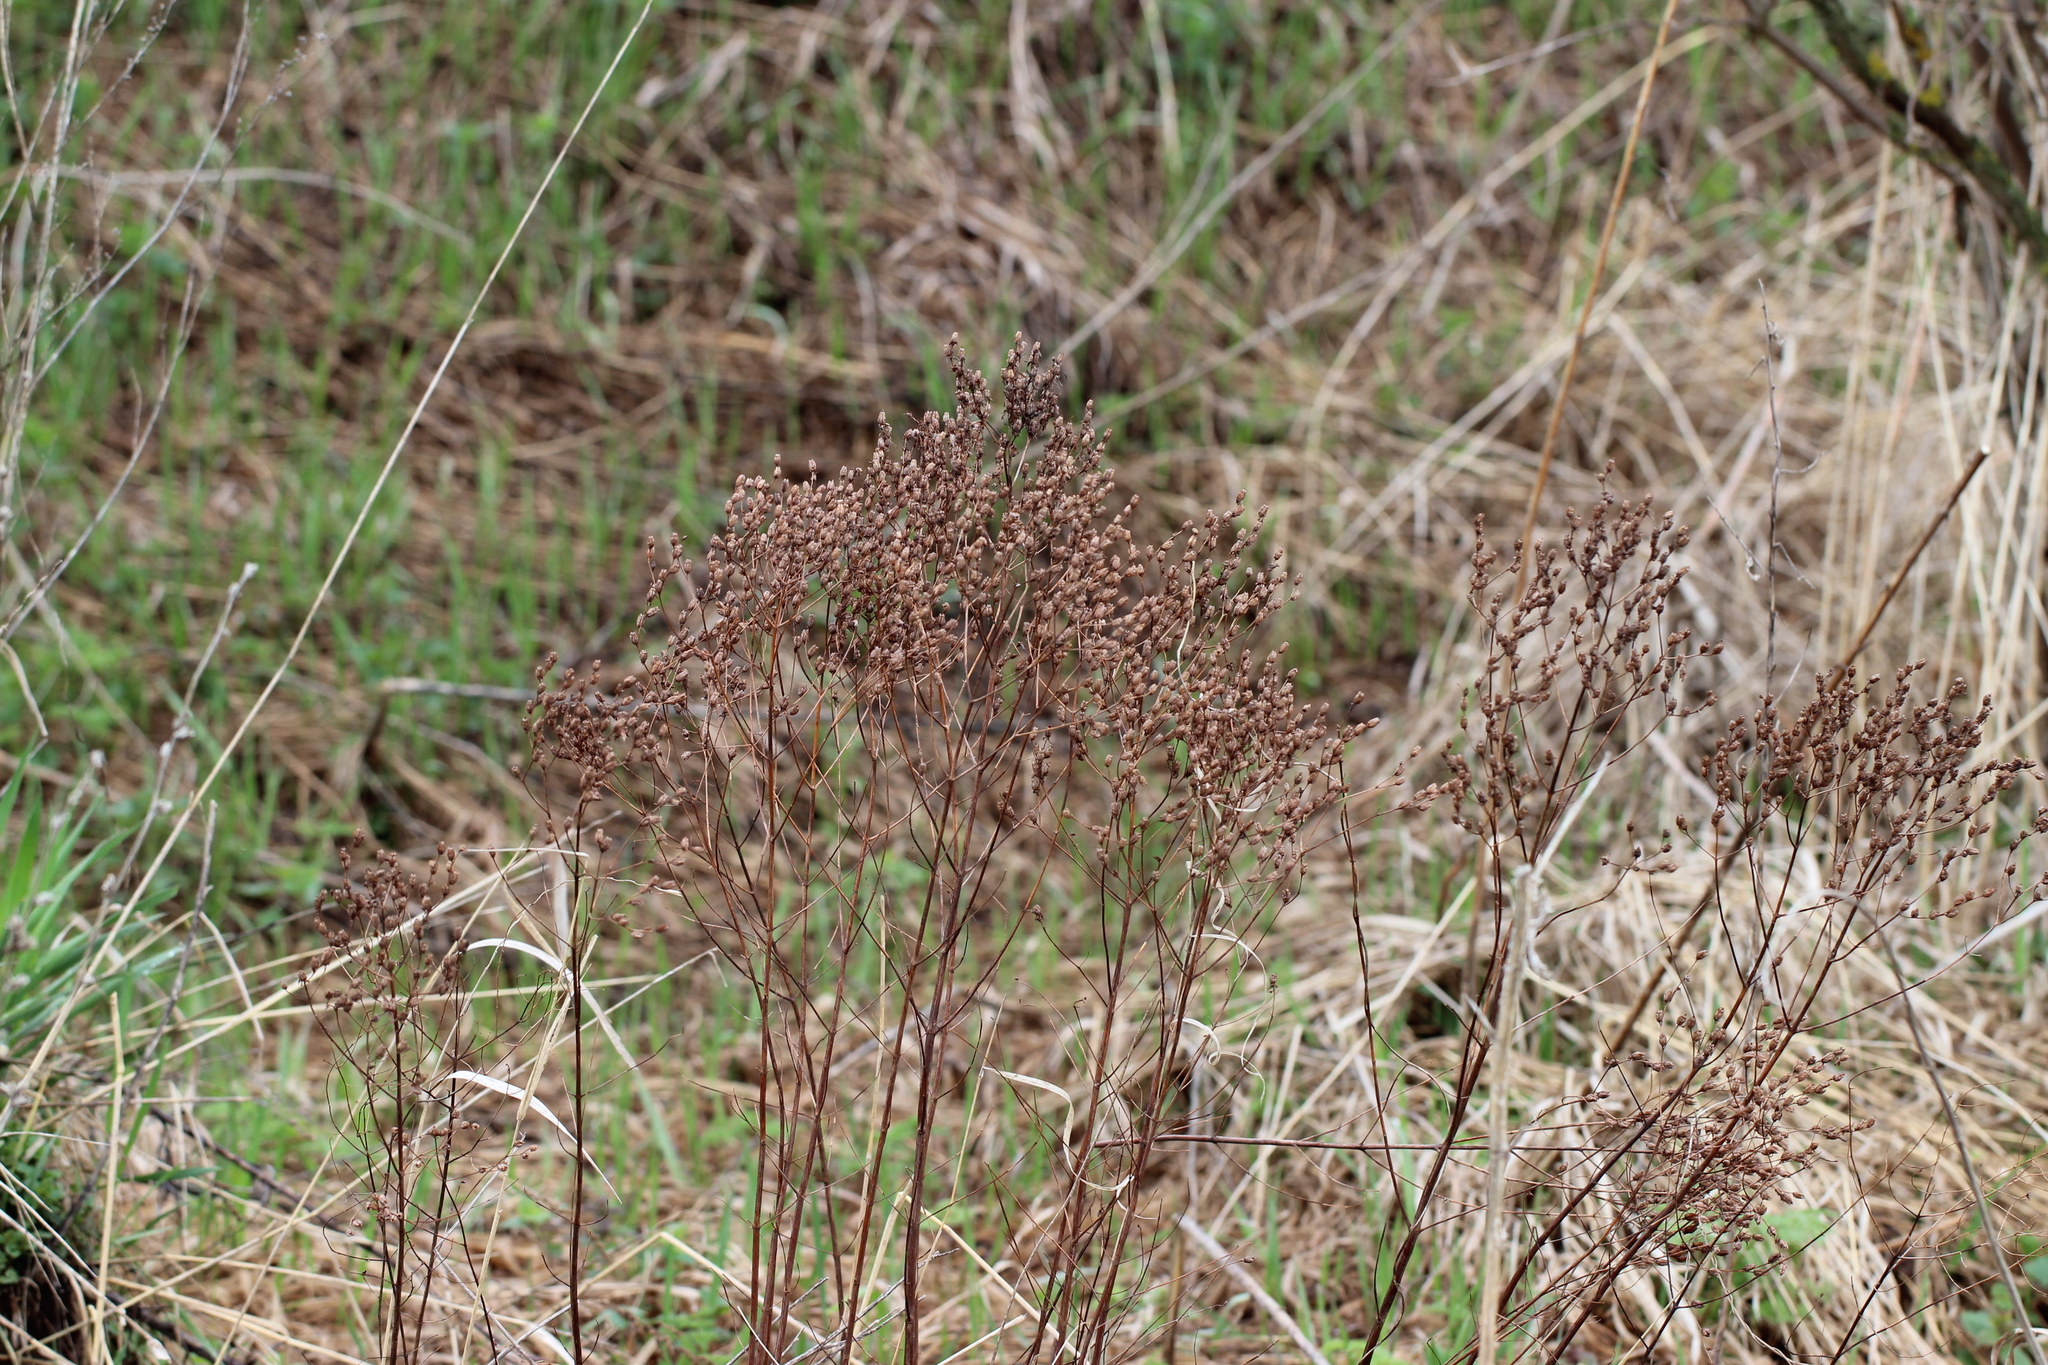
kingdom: Plantae
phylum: Tracheophyta
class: Magnoliopsida
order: Malpighiales
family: Hypericaceae
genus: Hypericum
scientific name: Hypericum perforatum
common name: Common st. johnswort
